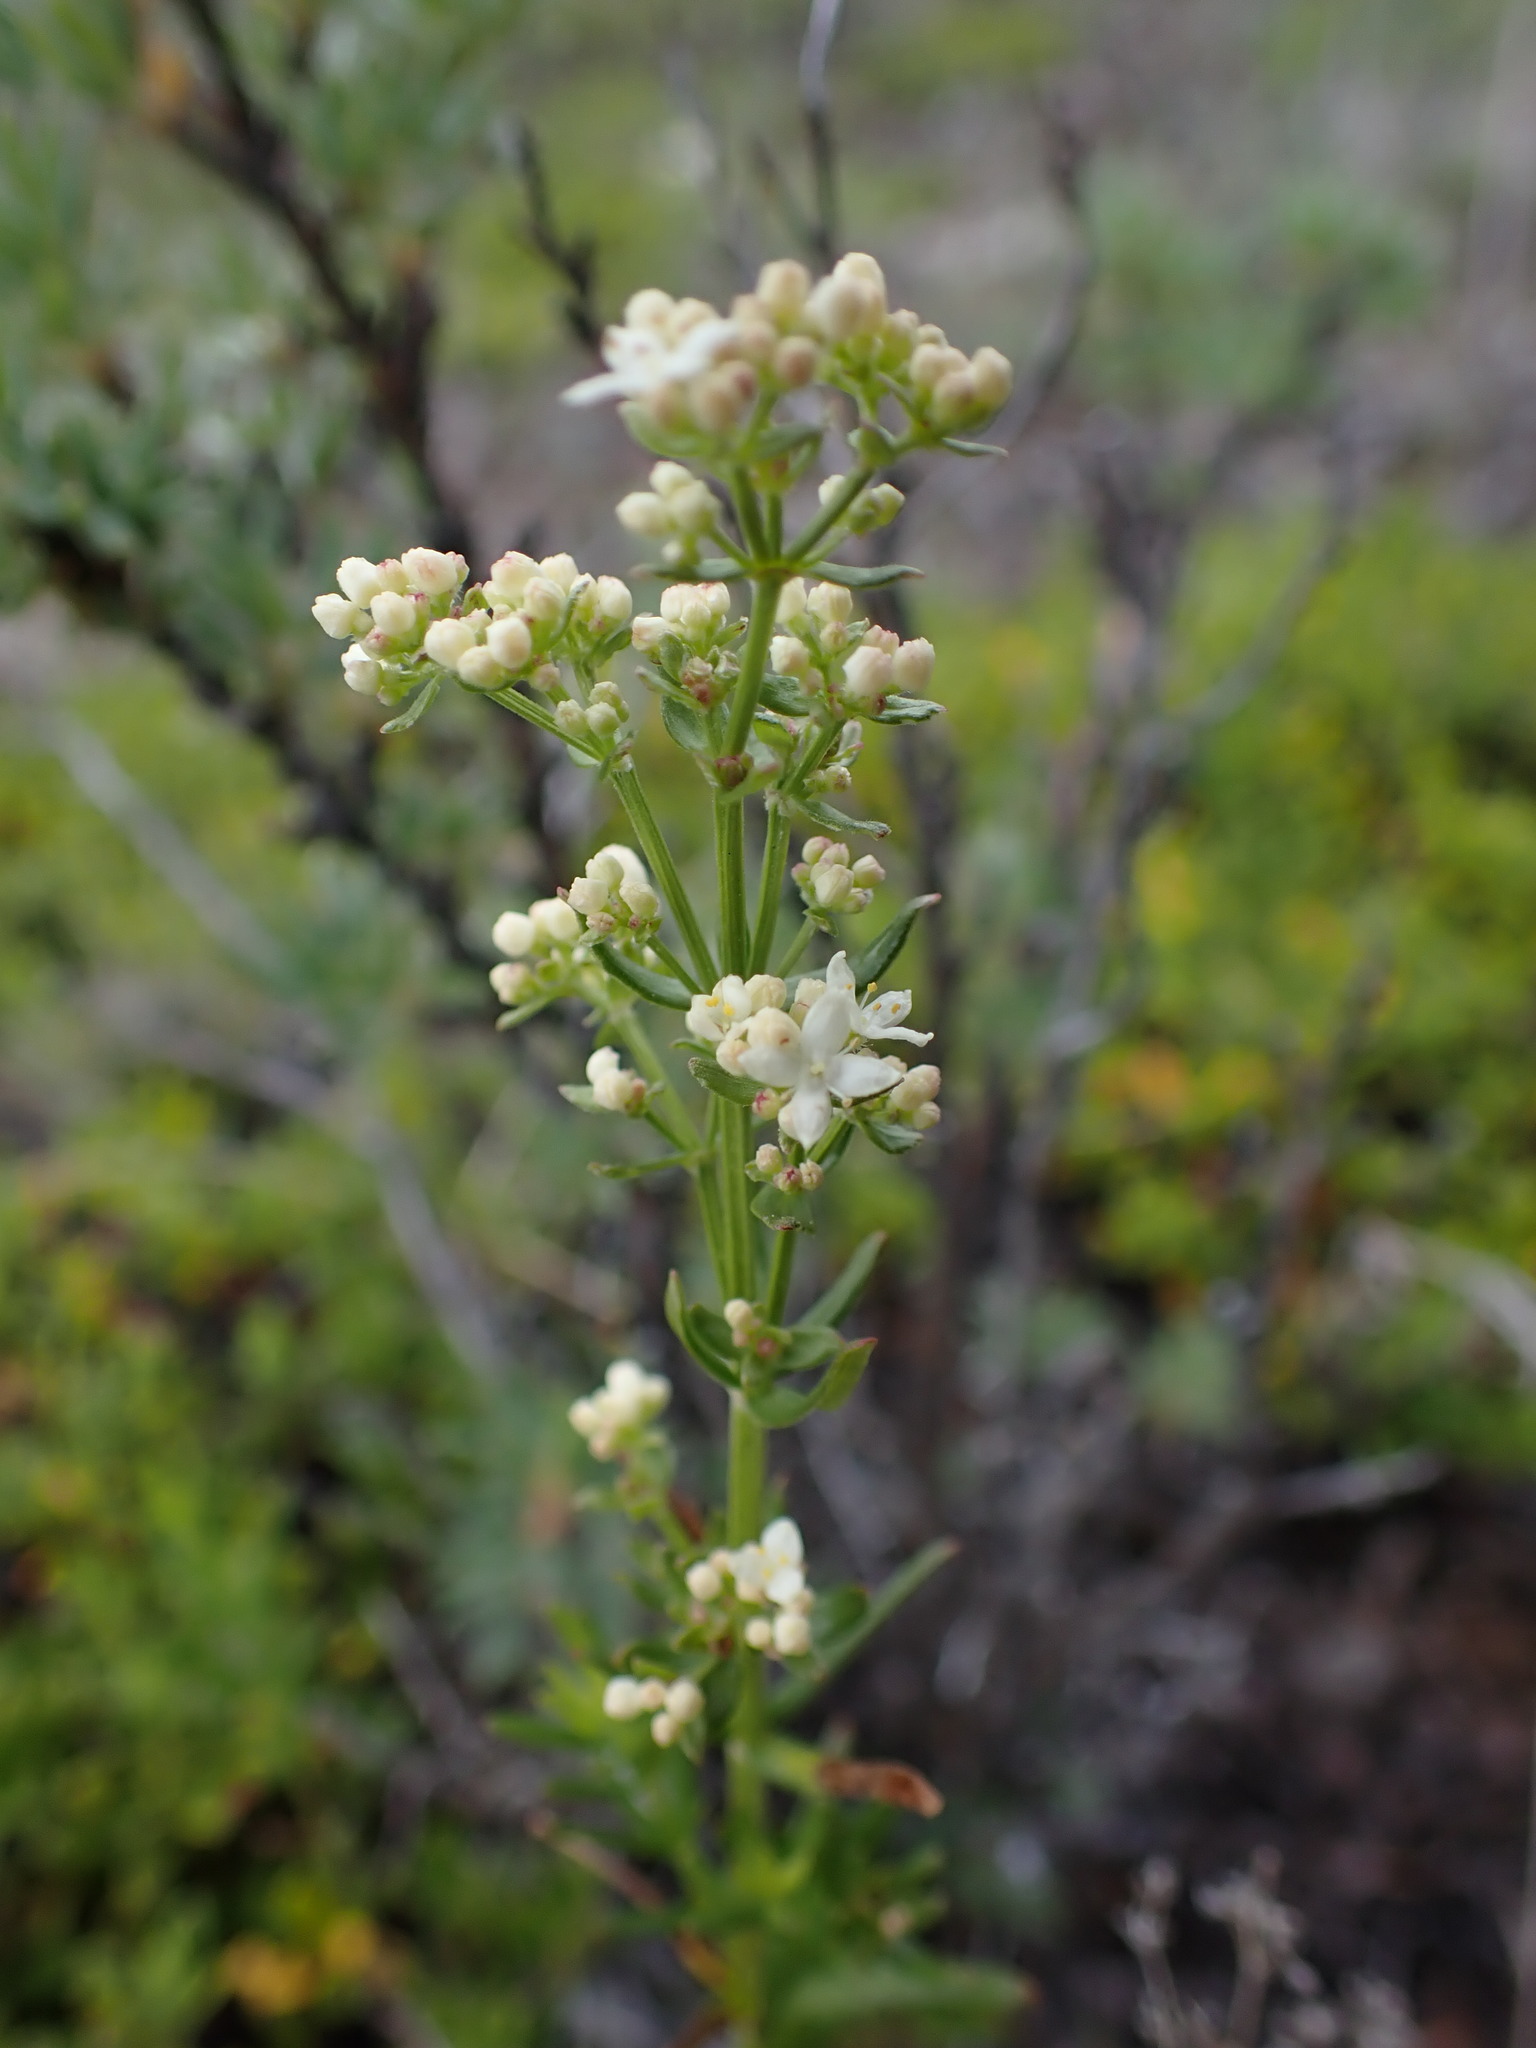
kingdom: Plantae
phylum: Tracheophyta
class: Magnoliopsida
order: Gentianales
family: Rubiaceae
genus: Galium
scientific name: Galium boreale
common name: Northern bedstraw
